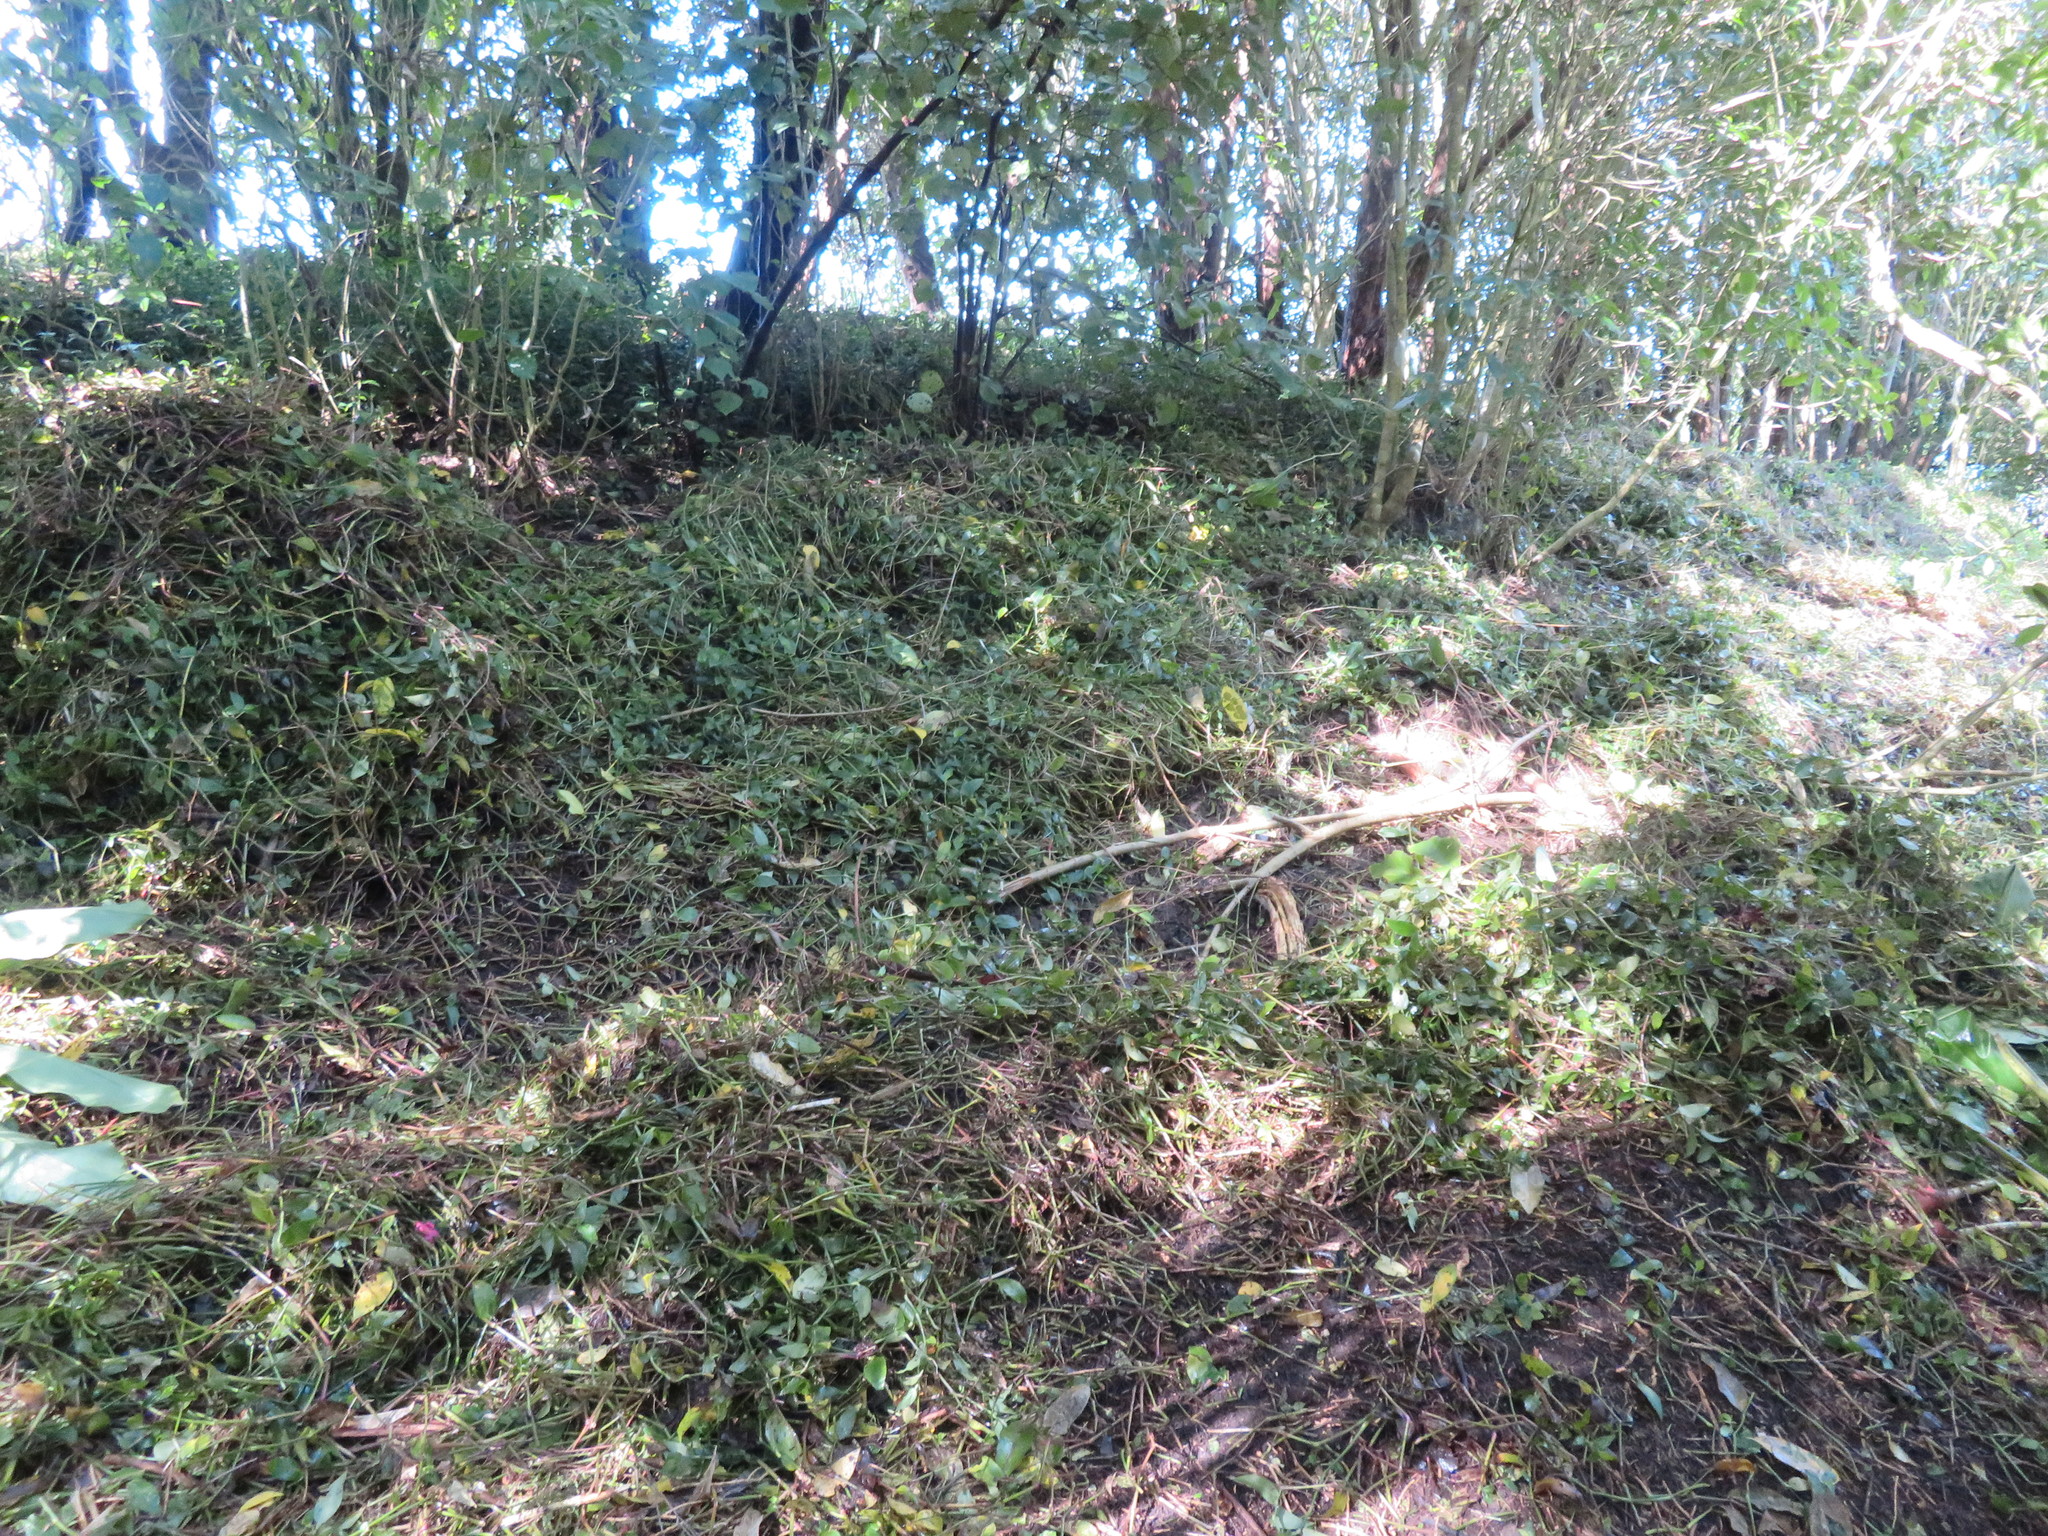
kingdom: Plantae
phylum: Tracheophyta
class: Liliopsida
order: Commelinales
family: Commelinaceae
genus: Tradescantia
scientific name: Tradescantia fluminensis
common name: Wandering-jew
